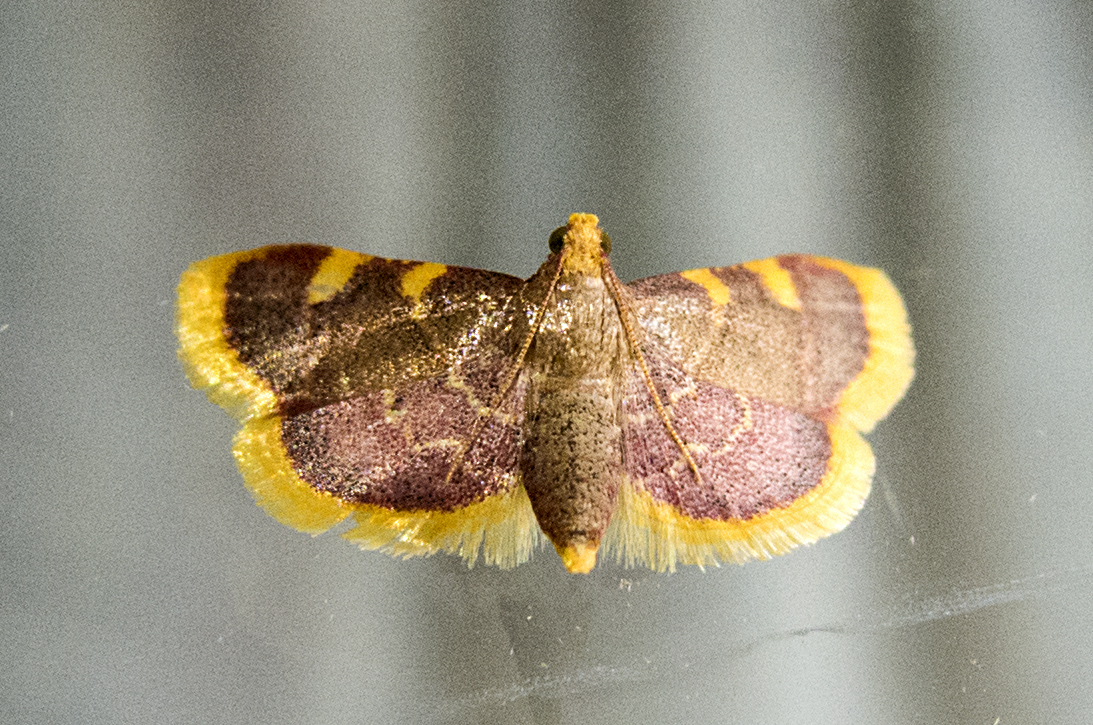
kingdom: Animalia
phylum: Arthropoda
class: Insecta
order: Lepidoptera
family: Pyralidae
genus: Hypsopygia
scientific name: Hypsopygia costalis
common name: Gold triangle
